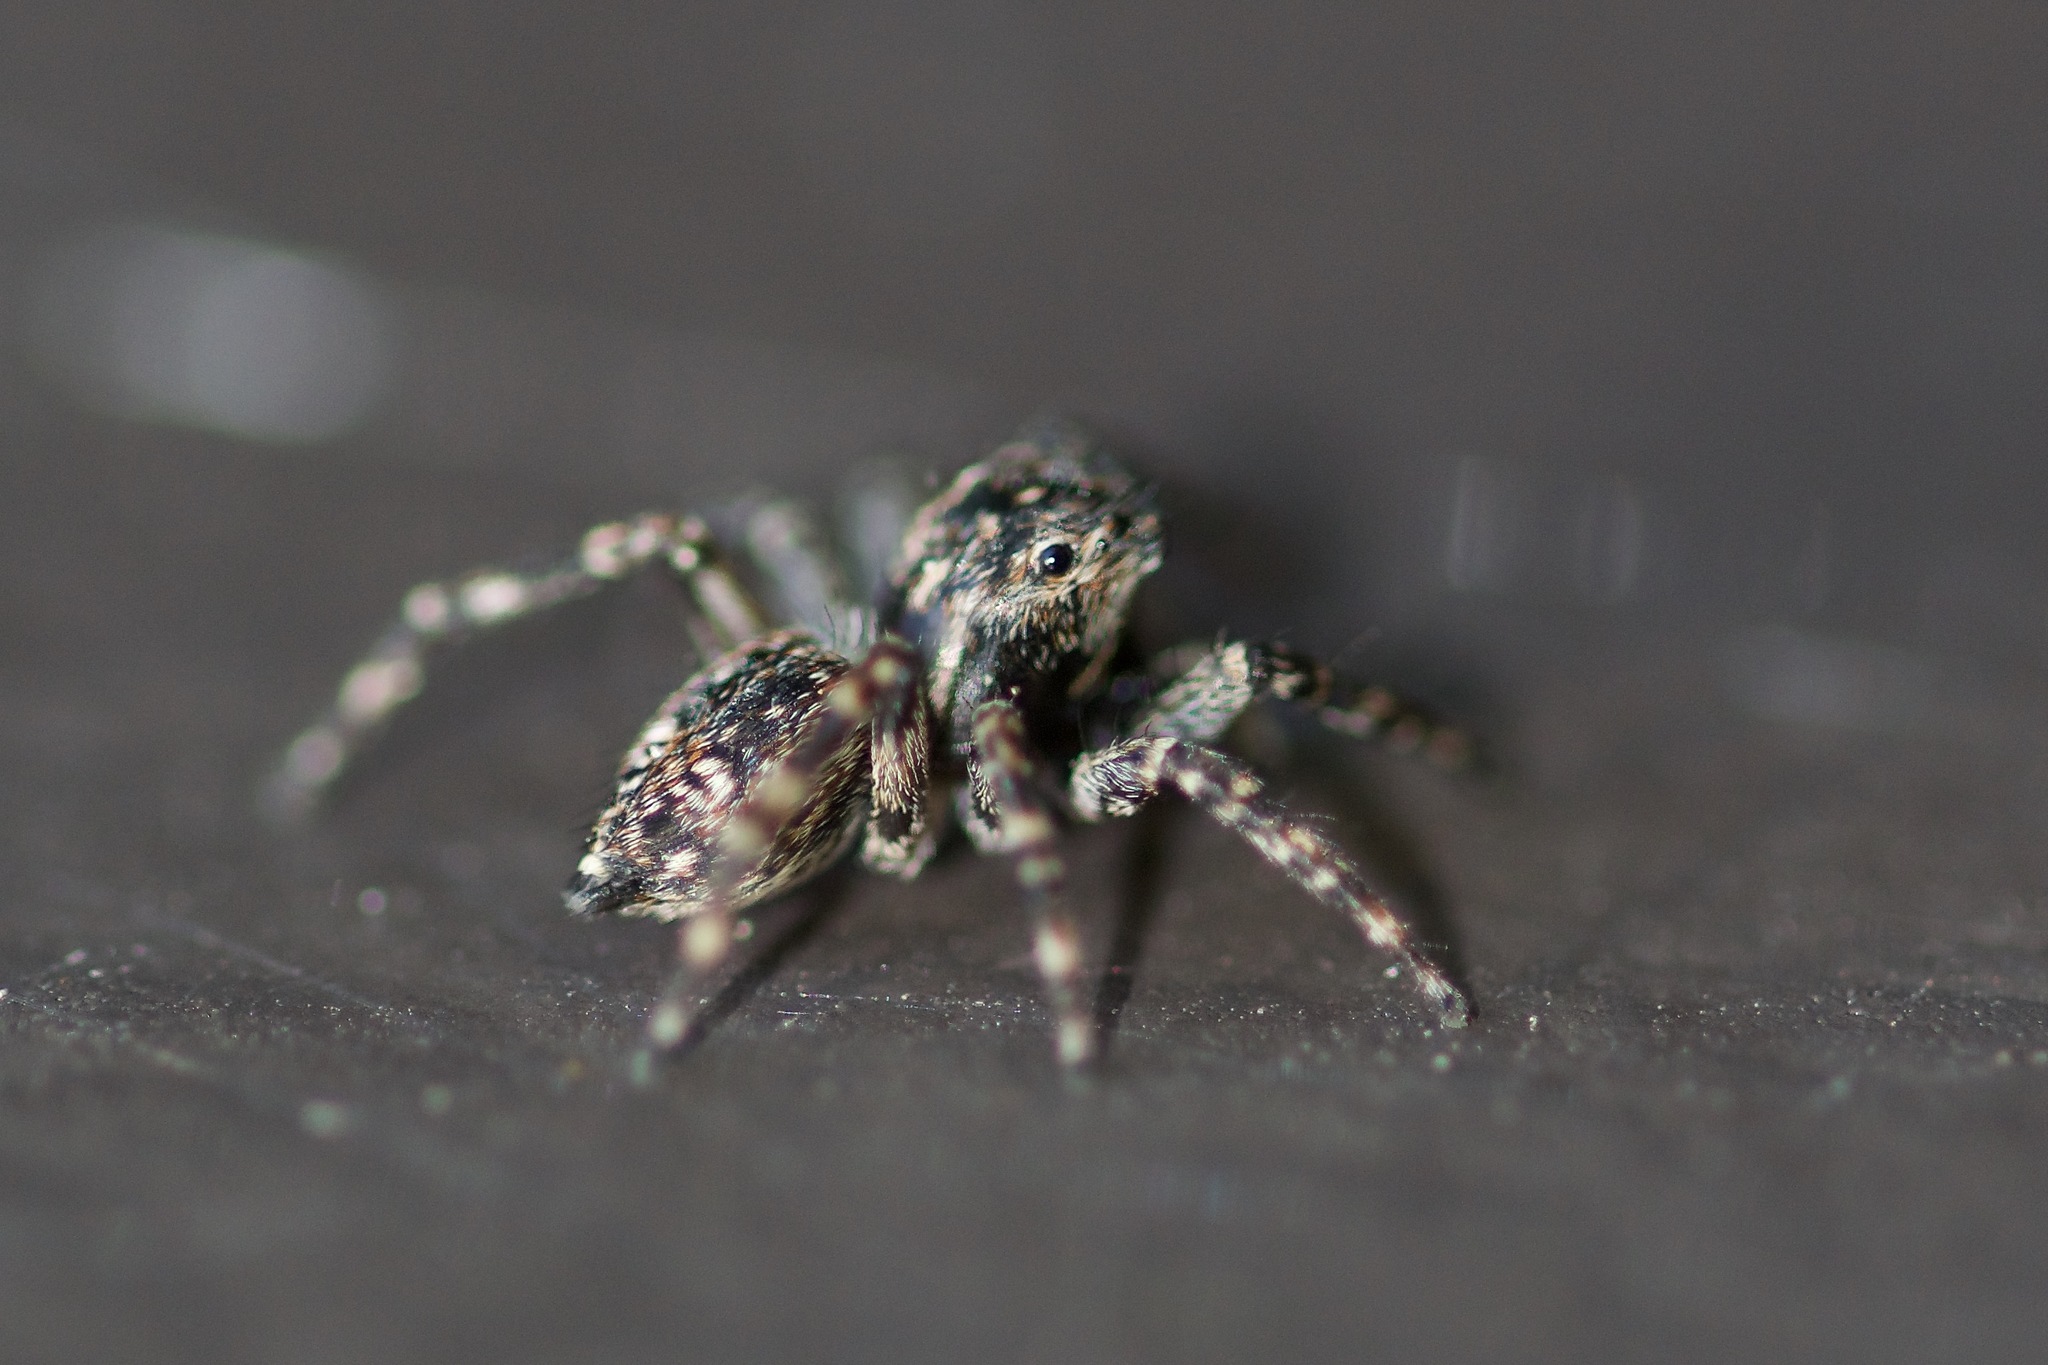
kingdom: Animalia
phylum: Arthropoda
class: Arachnida
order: Araneae
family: Salticidae
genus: Attulus
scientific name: Attulus fasciger
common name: Asiatic wall jumping spider
